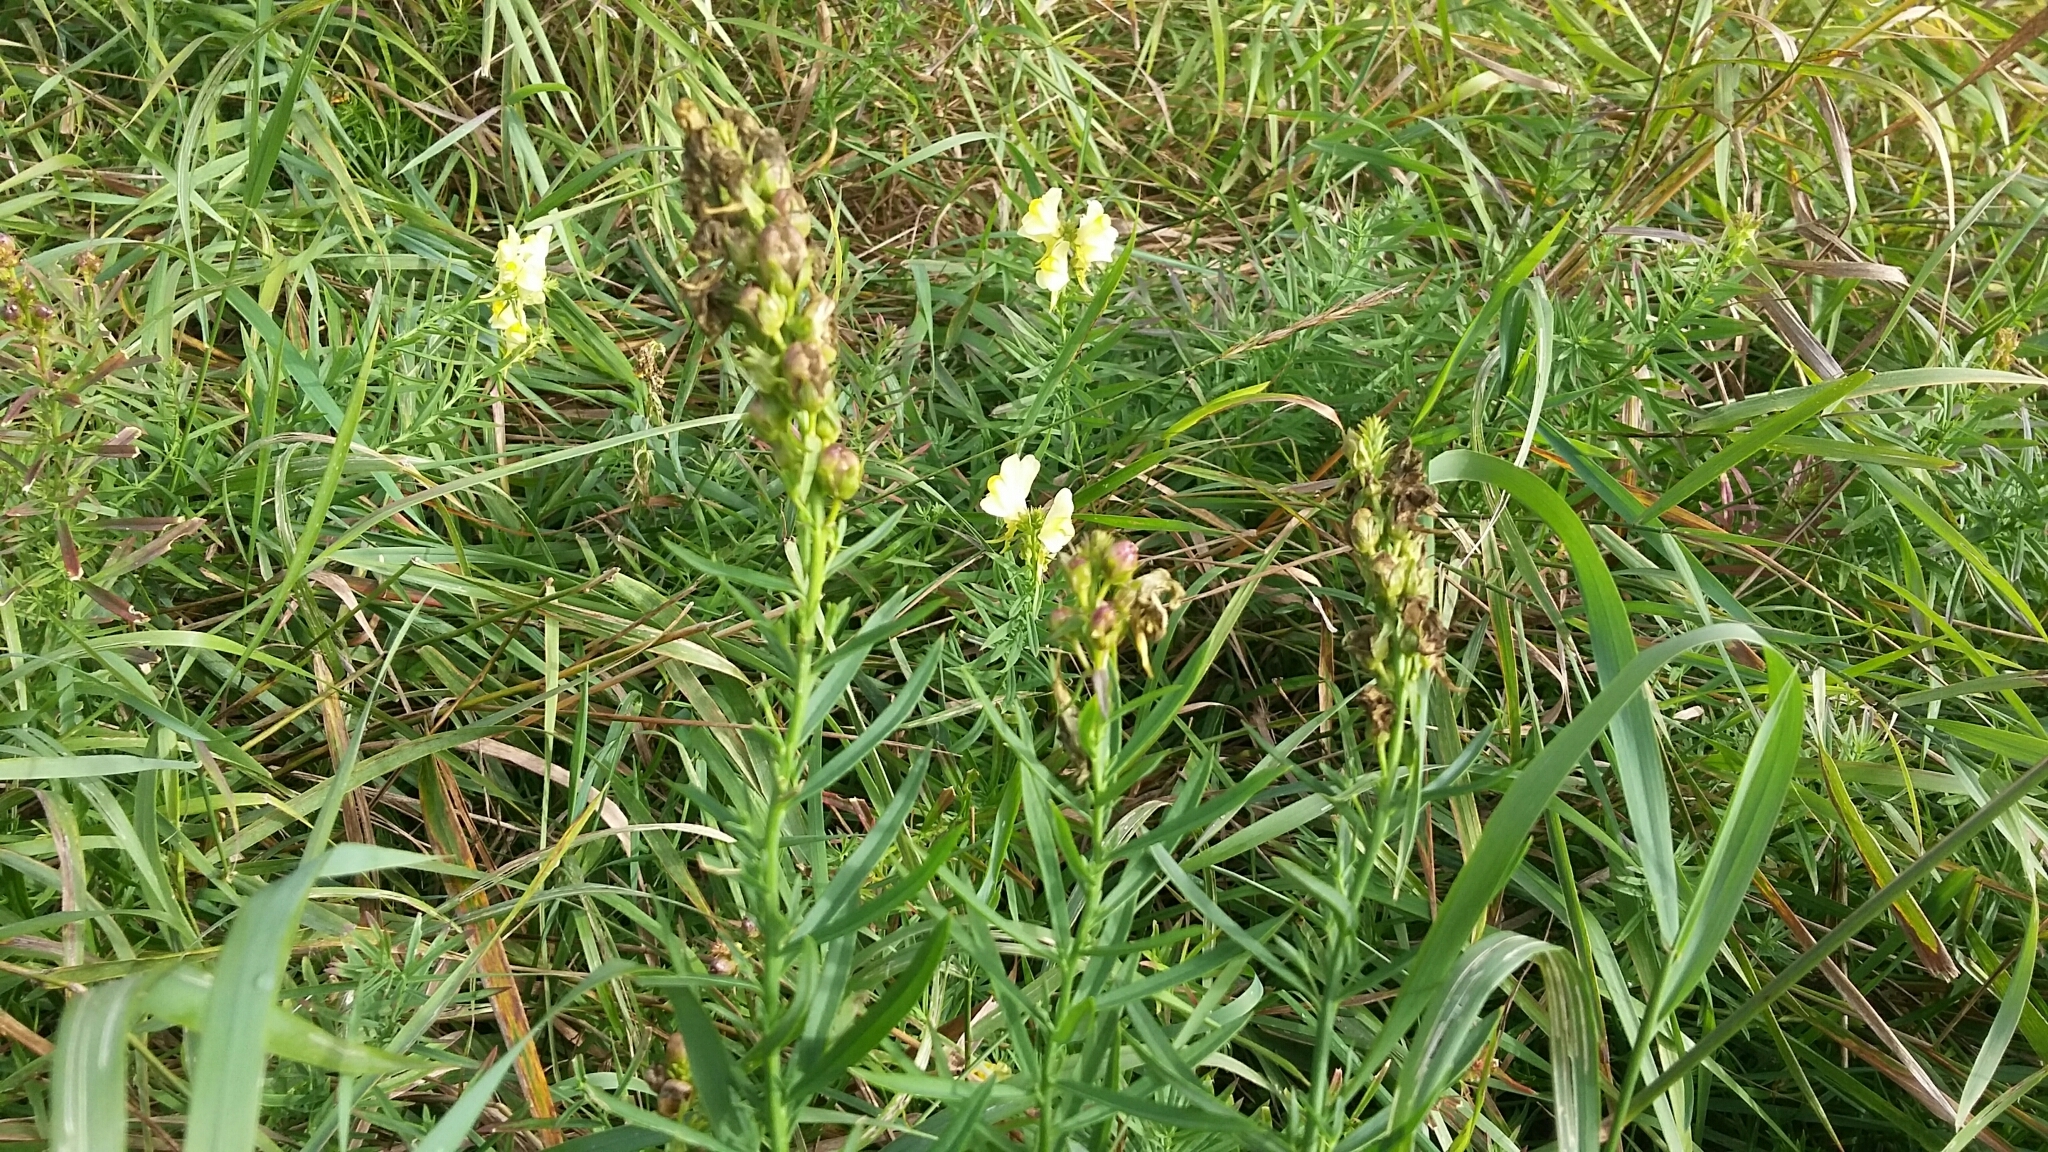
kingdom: Plantae
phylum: Tracheophyta
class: Magnoliopsida
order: Lamiales
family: Plantaginaceae
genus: Linaria
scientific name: Linaria vulgaris
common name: Butter and eggs
